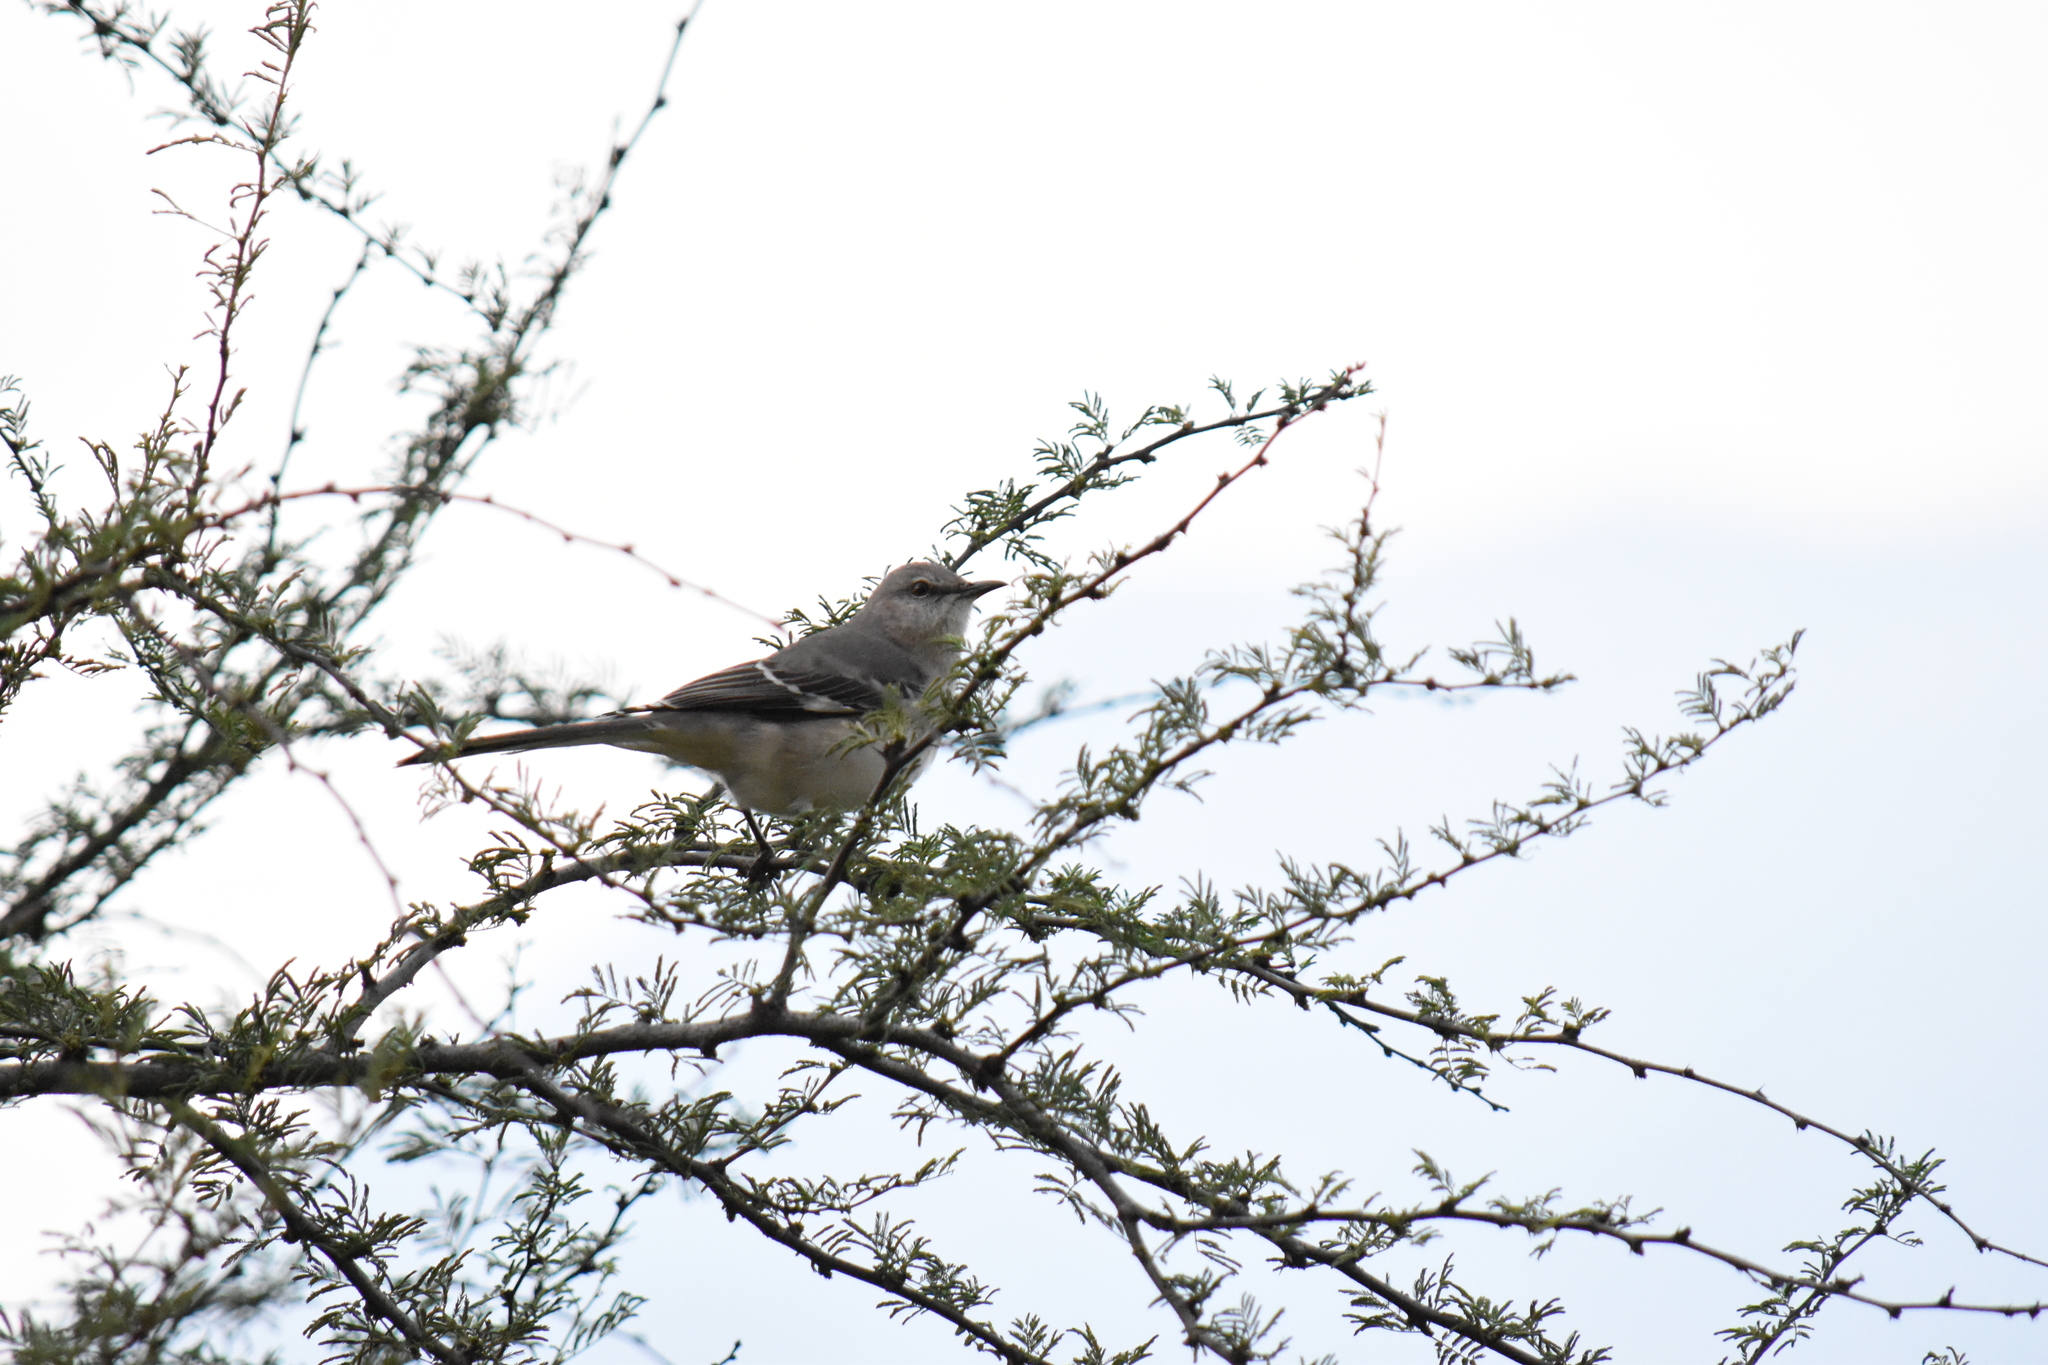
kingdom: Animalia
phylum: Chordata
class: Aves
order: Passeriformes
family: Mimidae
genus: Mimus
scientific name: Mimus polyglottos
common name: Northern mockingbird
